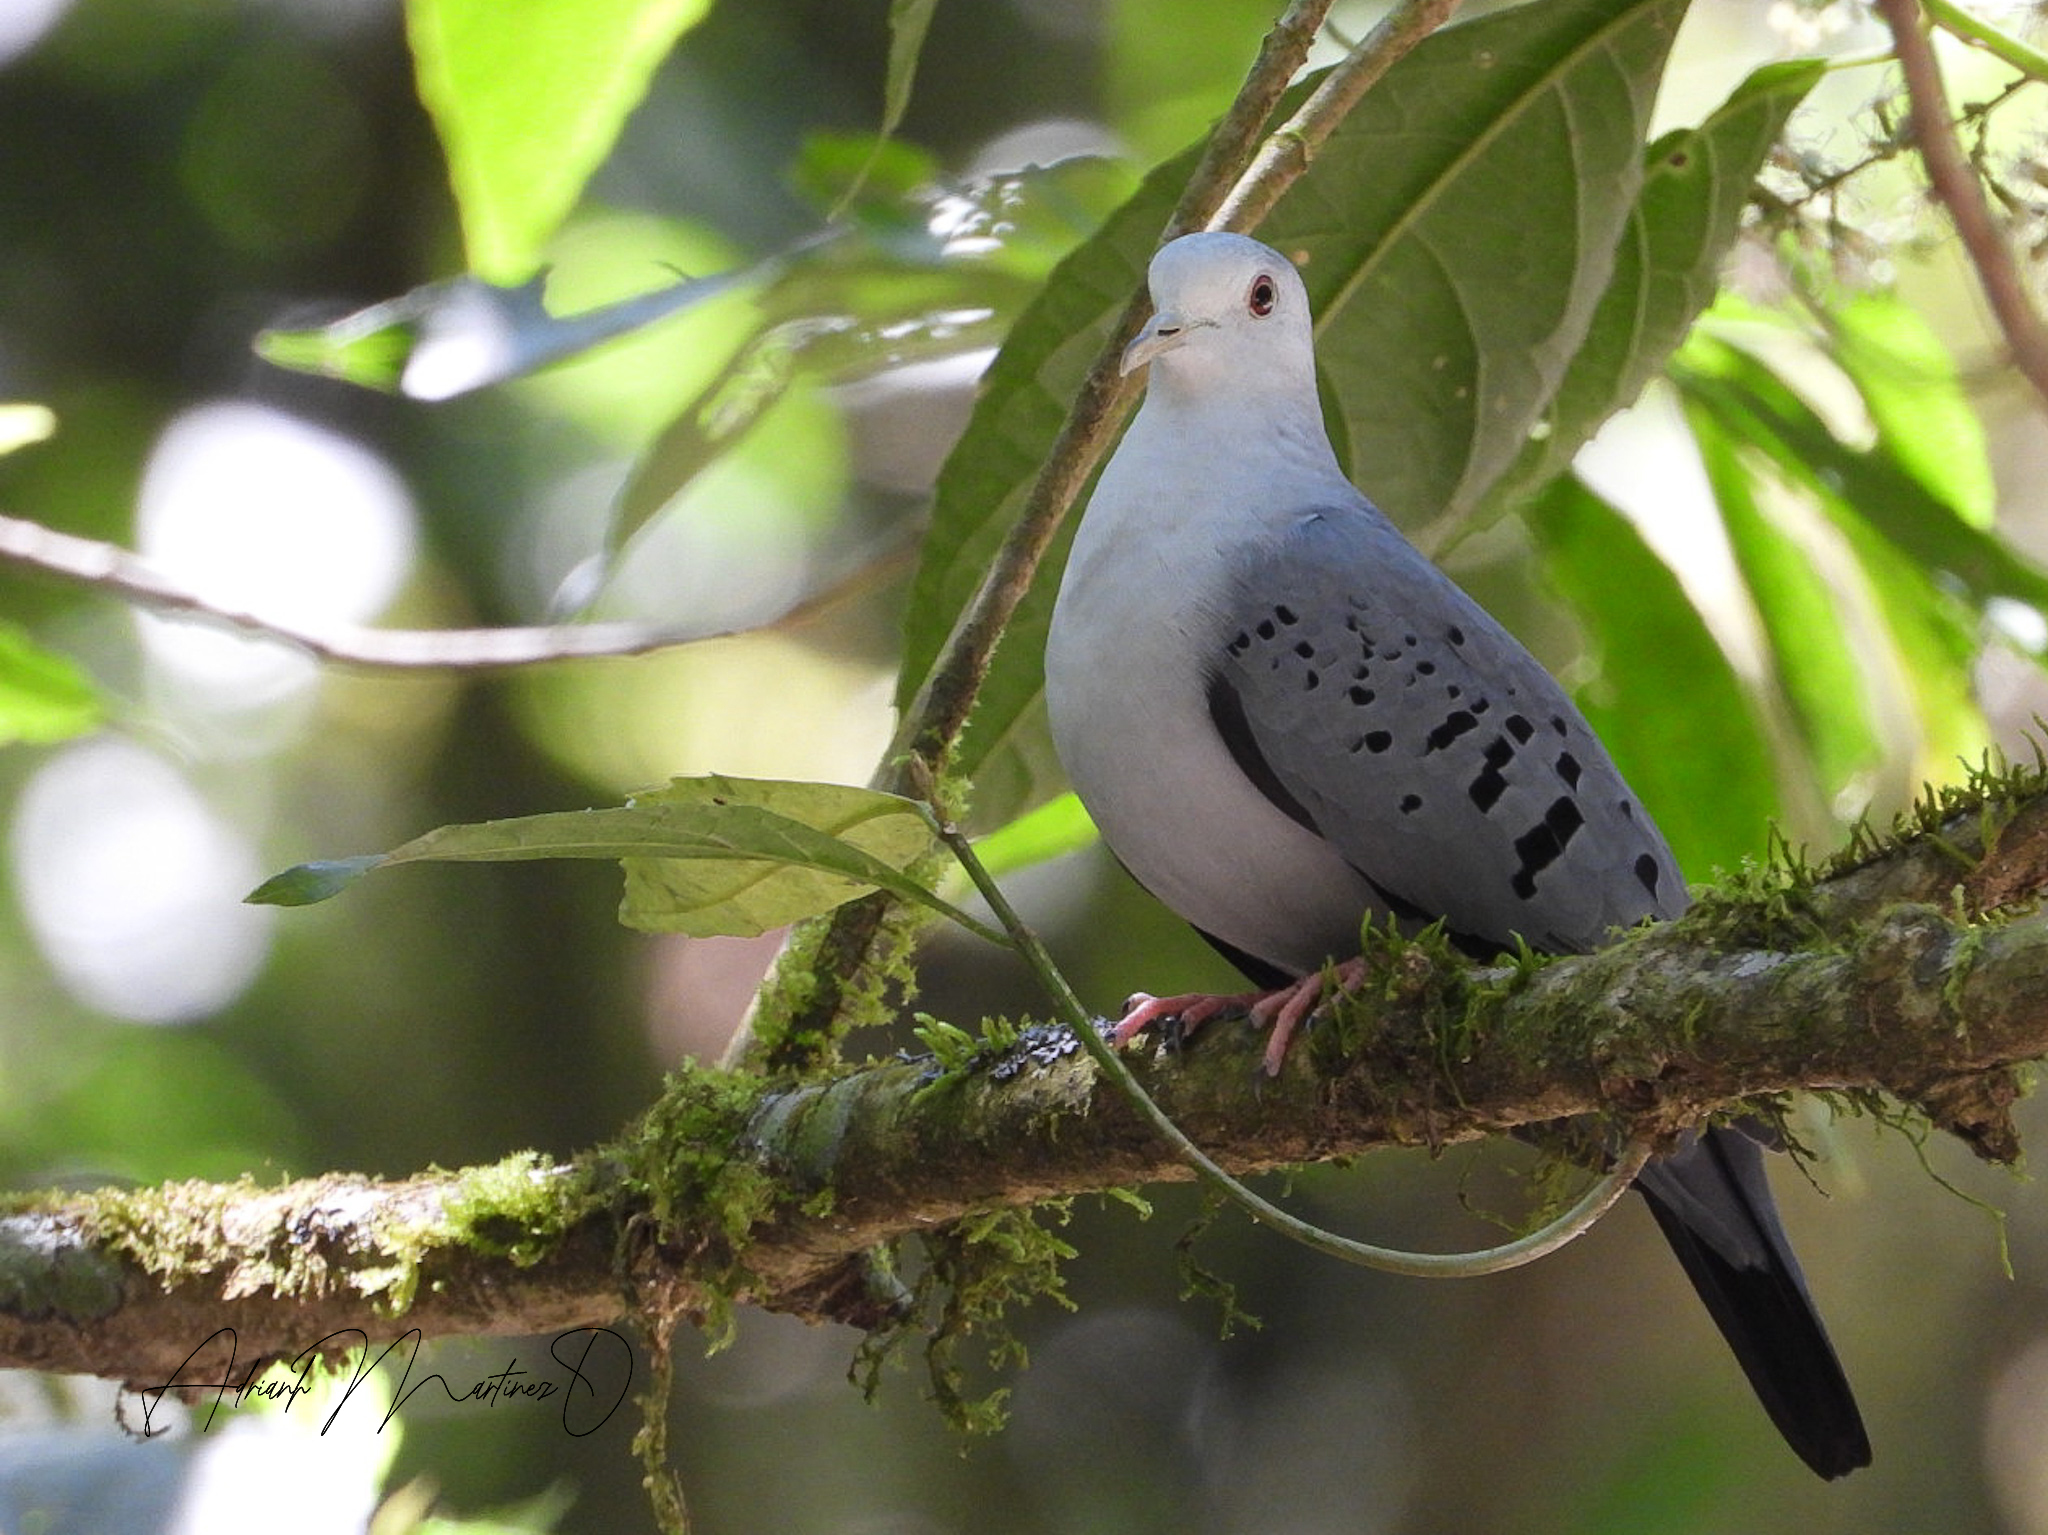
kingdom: Animalia
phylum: Chordata
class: Aves
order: Columbiformes
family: Columbidae
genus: Claravis
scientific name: Claravis pretiosa
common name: Blue ground-dove
